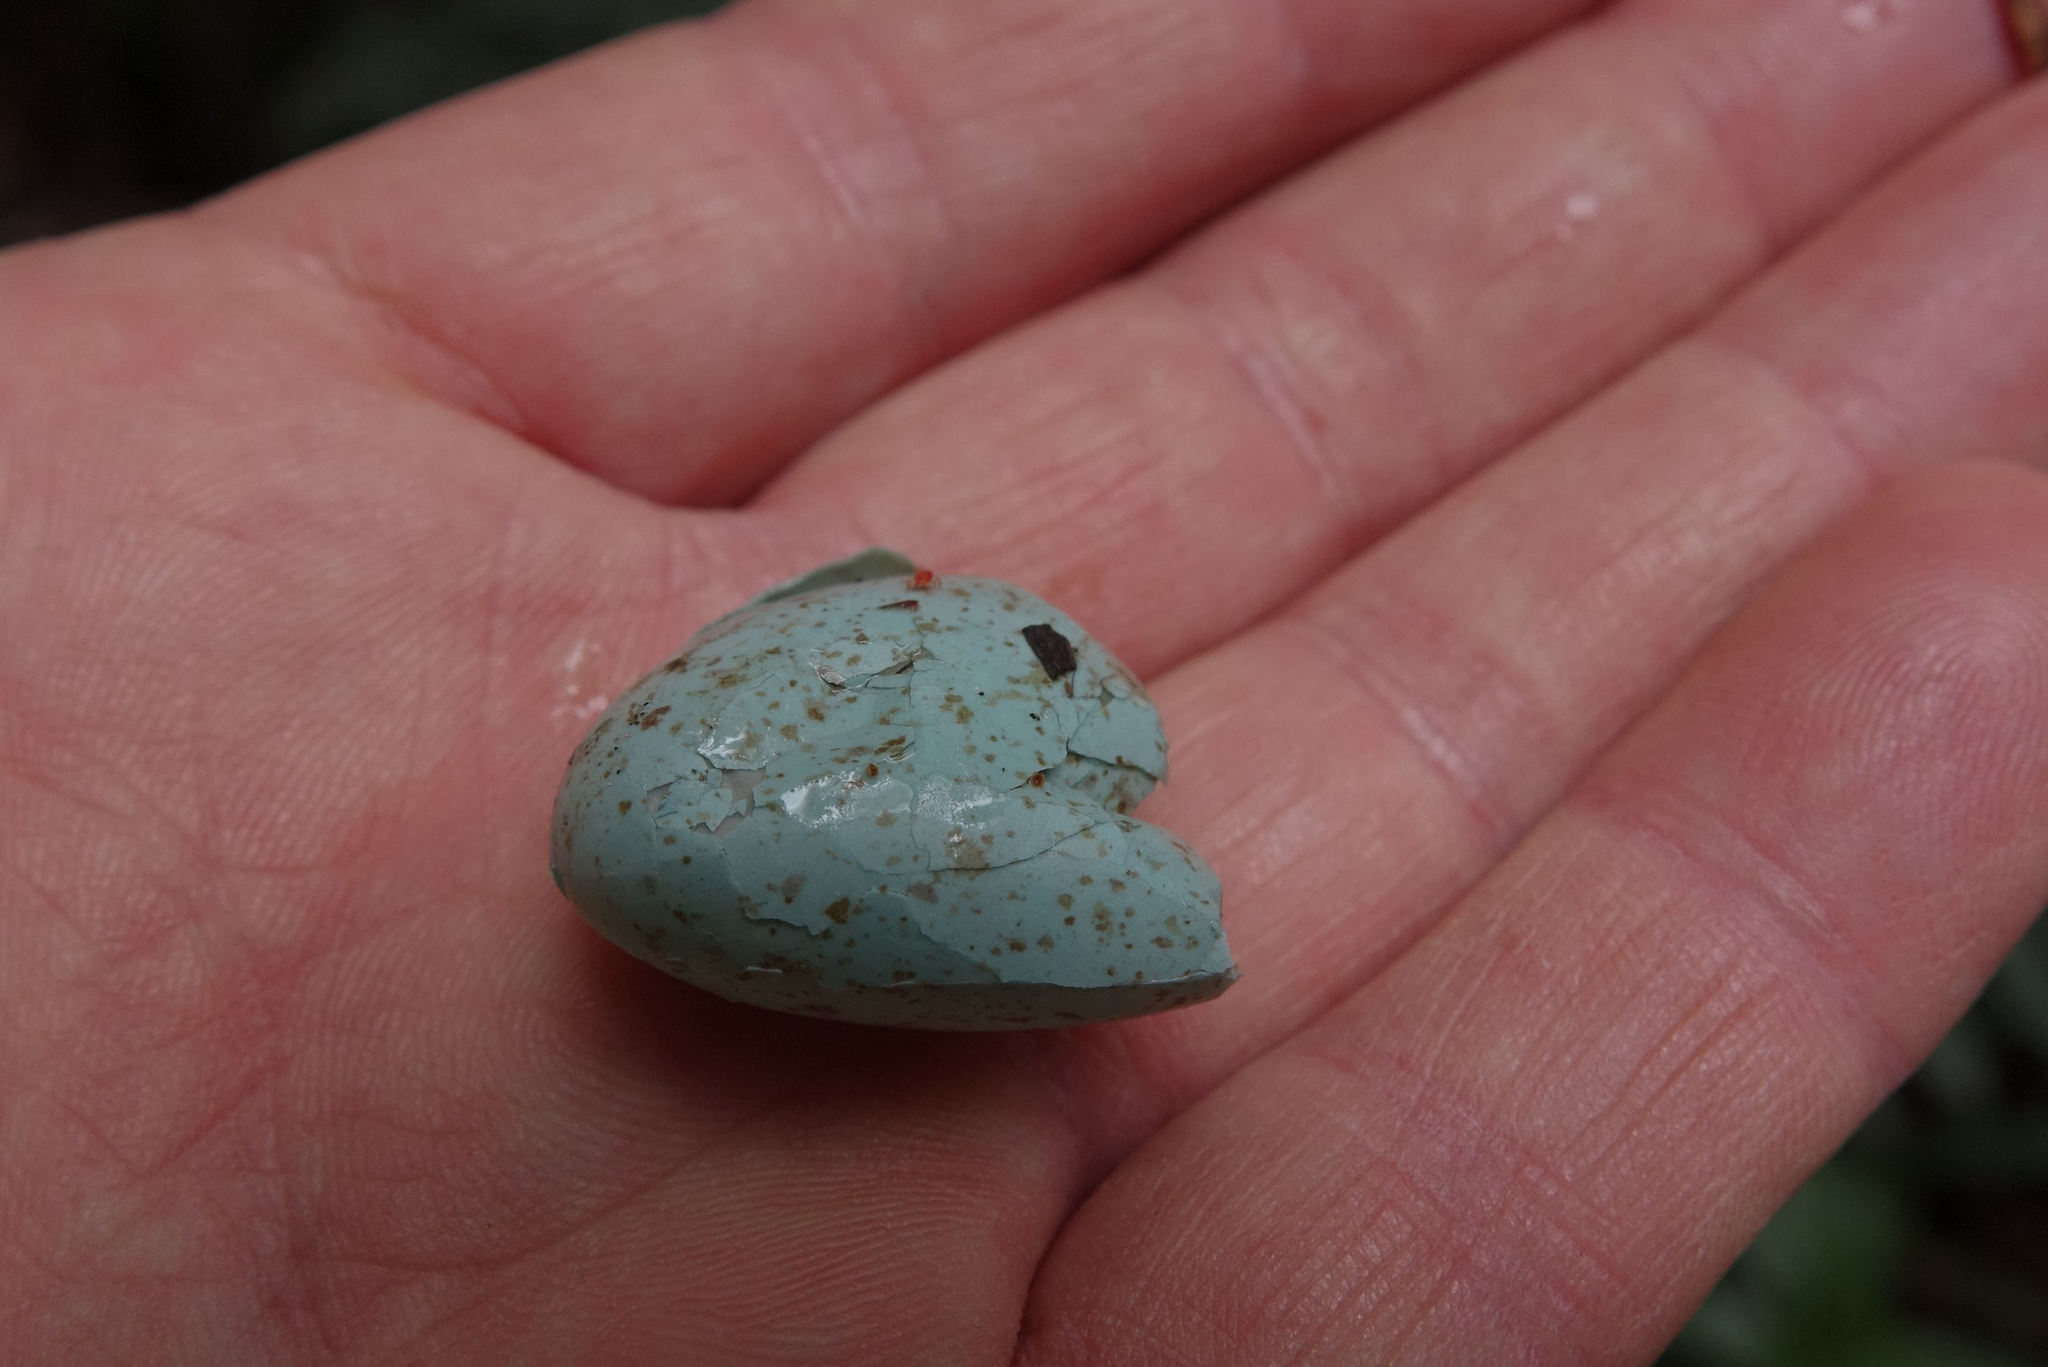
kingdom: Animalia
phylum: Chordata
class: Aves
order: Passeriformes
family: Turdidae
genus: Turdus
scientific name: Turdus merula
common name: Common blackbird
